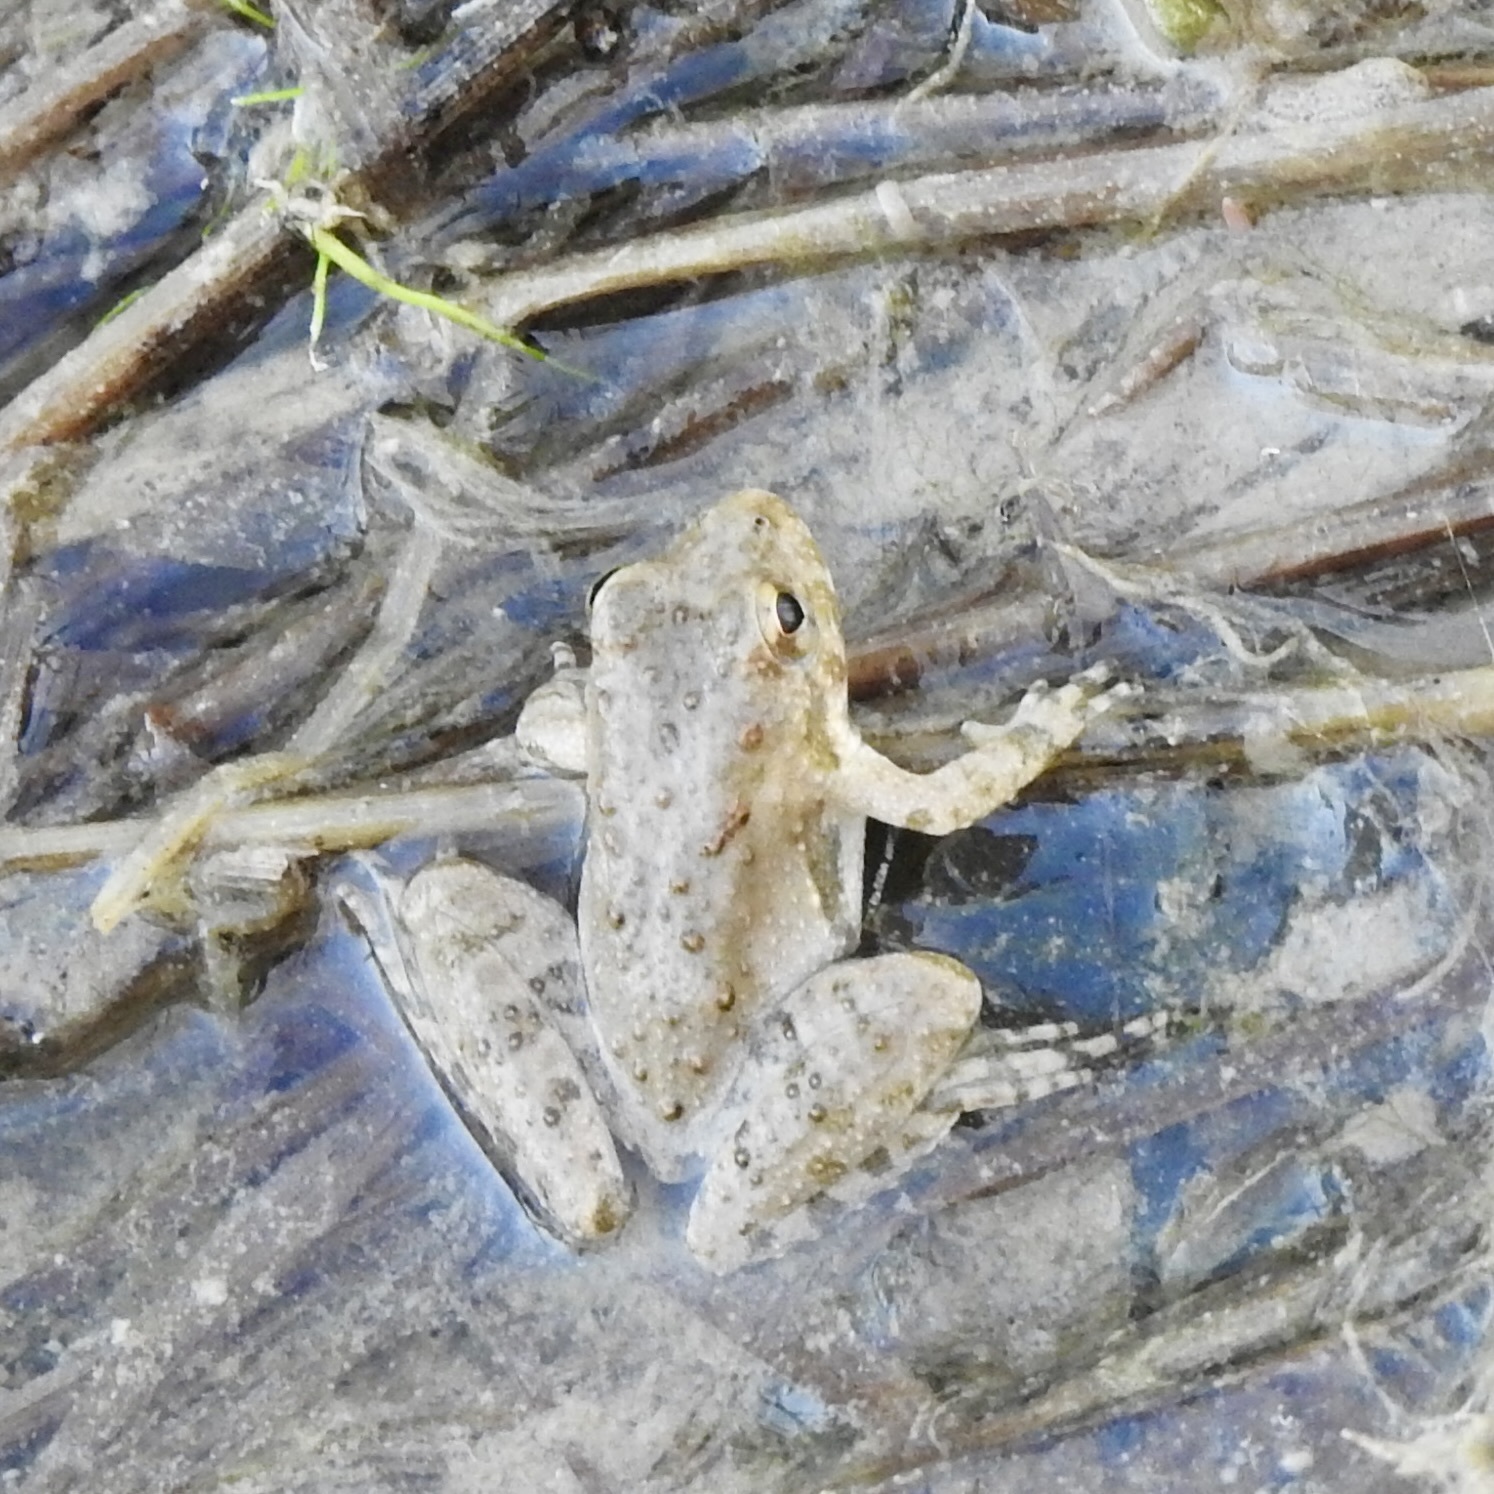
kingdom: Animalia
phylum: Chordata
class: Amphibia
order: Anura
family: Hylidae
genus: Acris
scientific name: Acris blanchardi
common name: Blanchard's cricket frog
